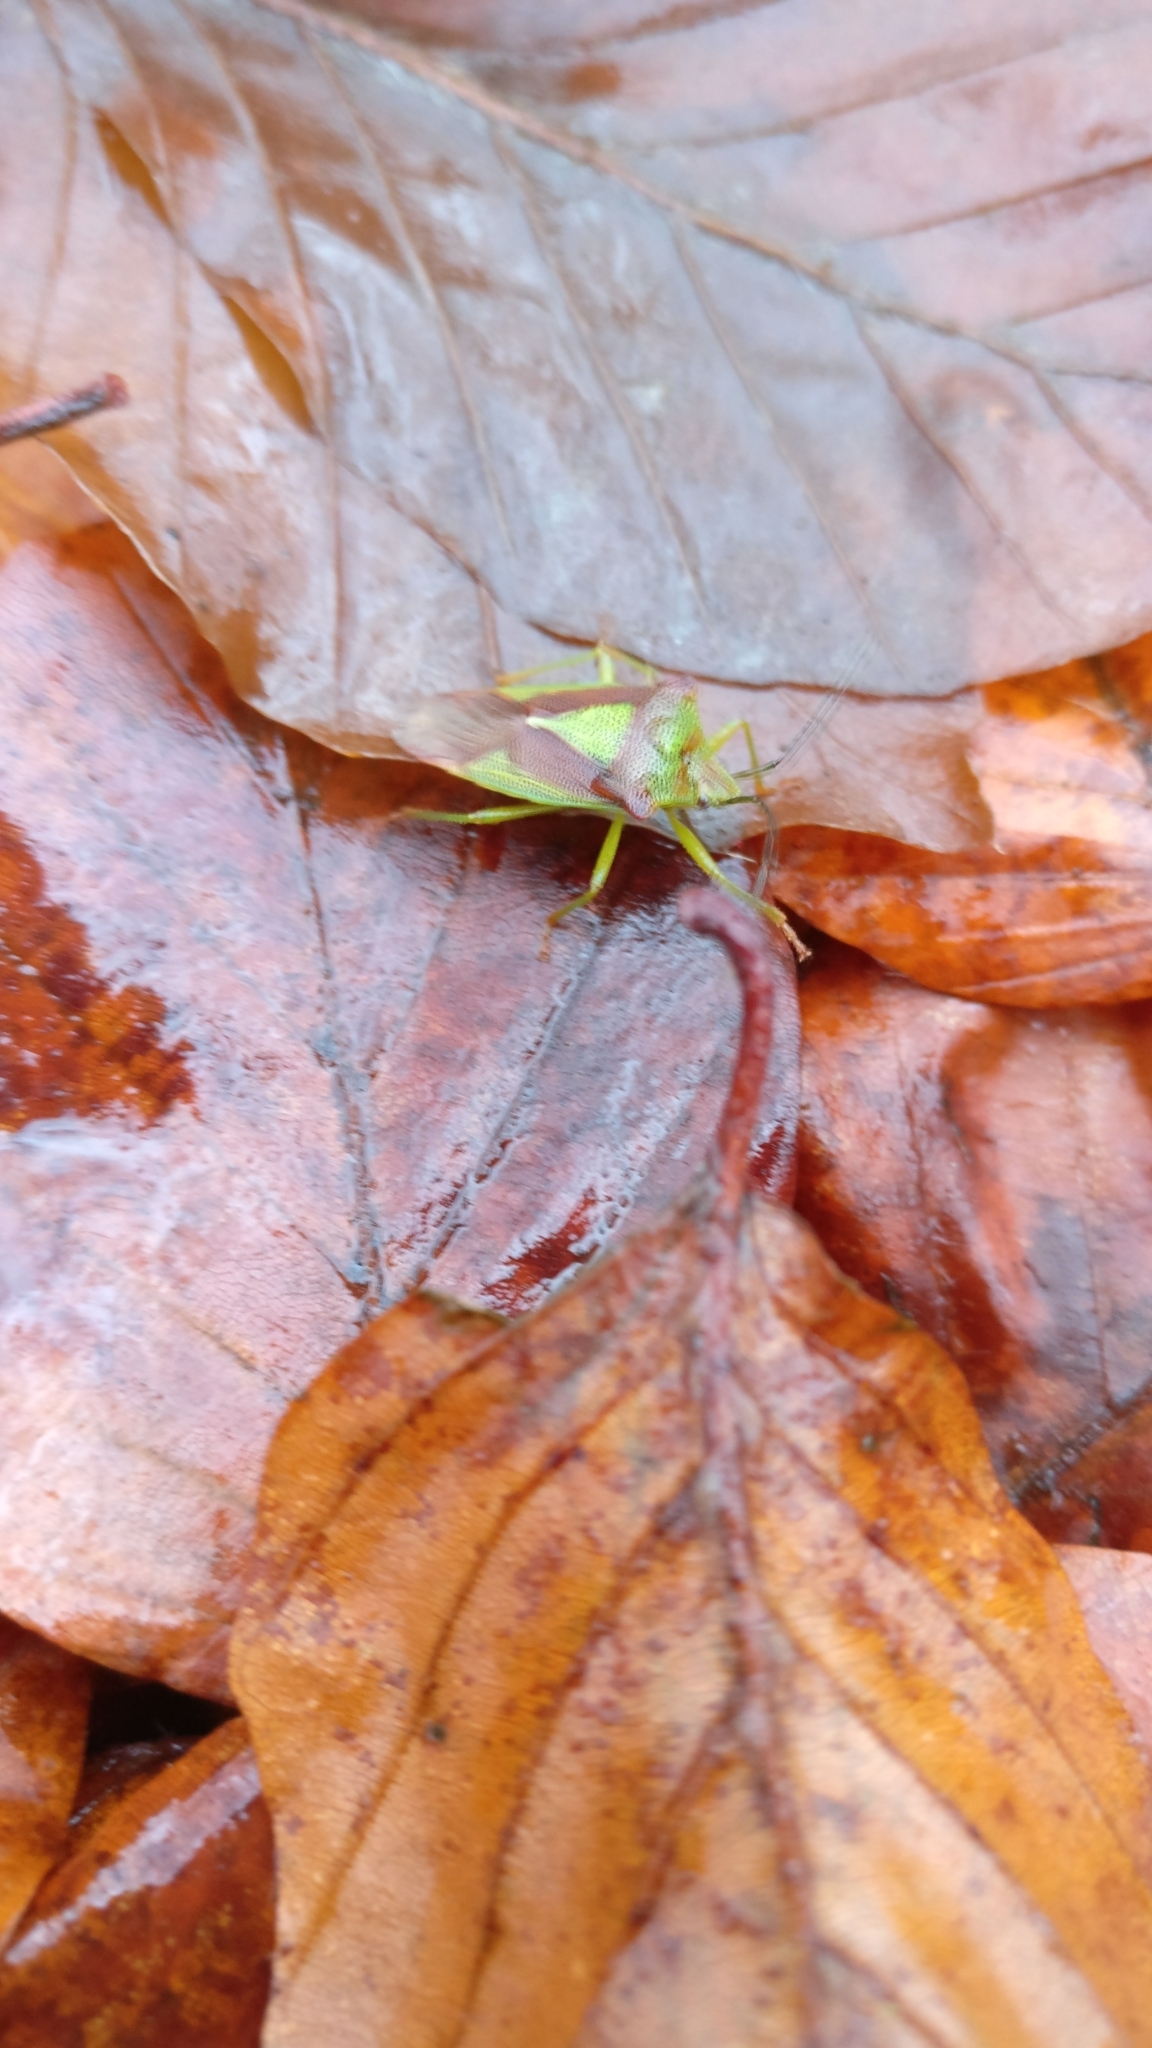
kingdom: Animalia
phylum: Arthropoda
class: Insecta
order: Hemiptera
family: Acanthosomatidae
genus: Acanthosoma
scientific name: Acanthosoma haemorrhoidale
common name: Hawthorn shieldbug
